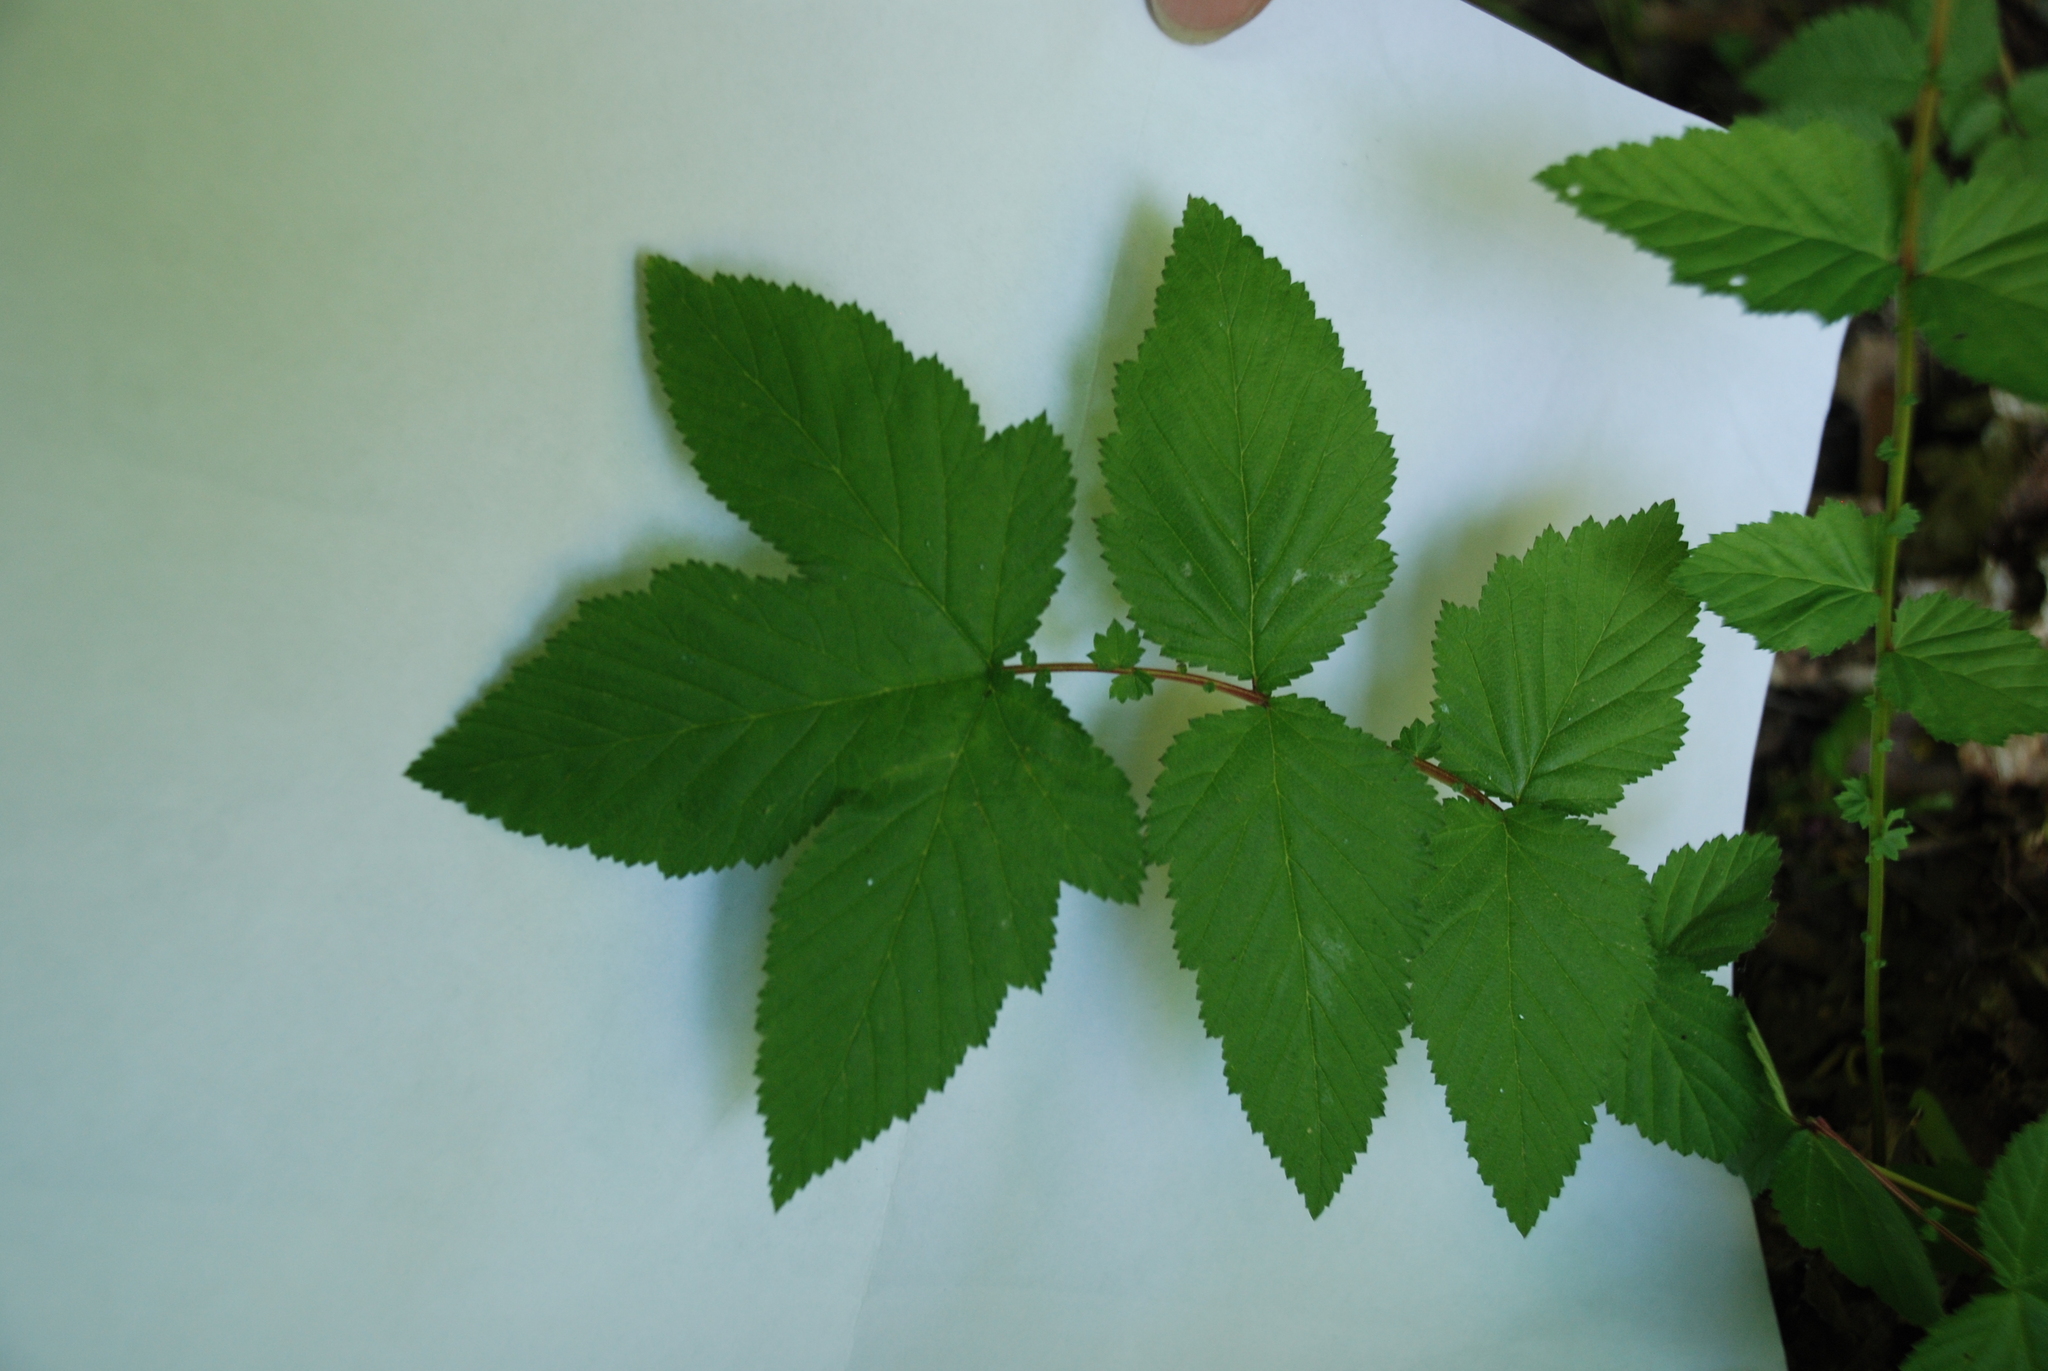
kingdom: Plantae
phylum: Tracheophyta
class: Magnoliopsida
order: Rosales
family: Rosaceae
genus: Filipendula
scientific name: Filipendula ulmaria
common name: Meadowsweet
